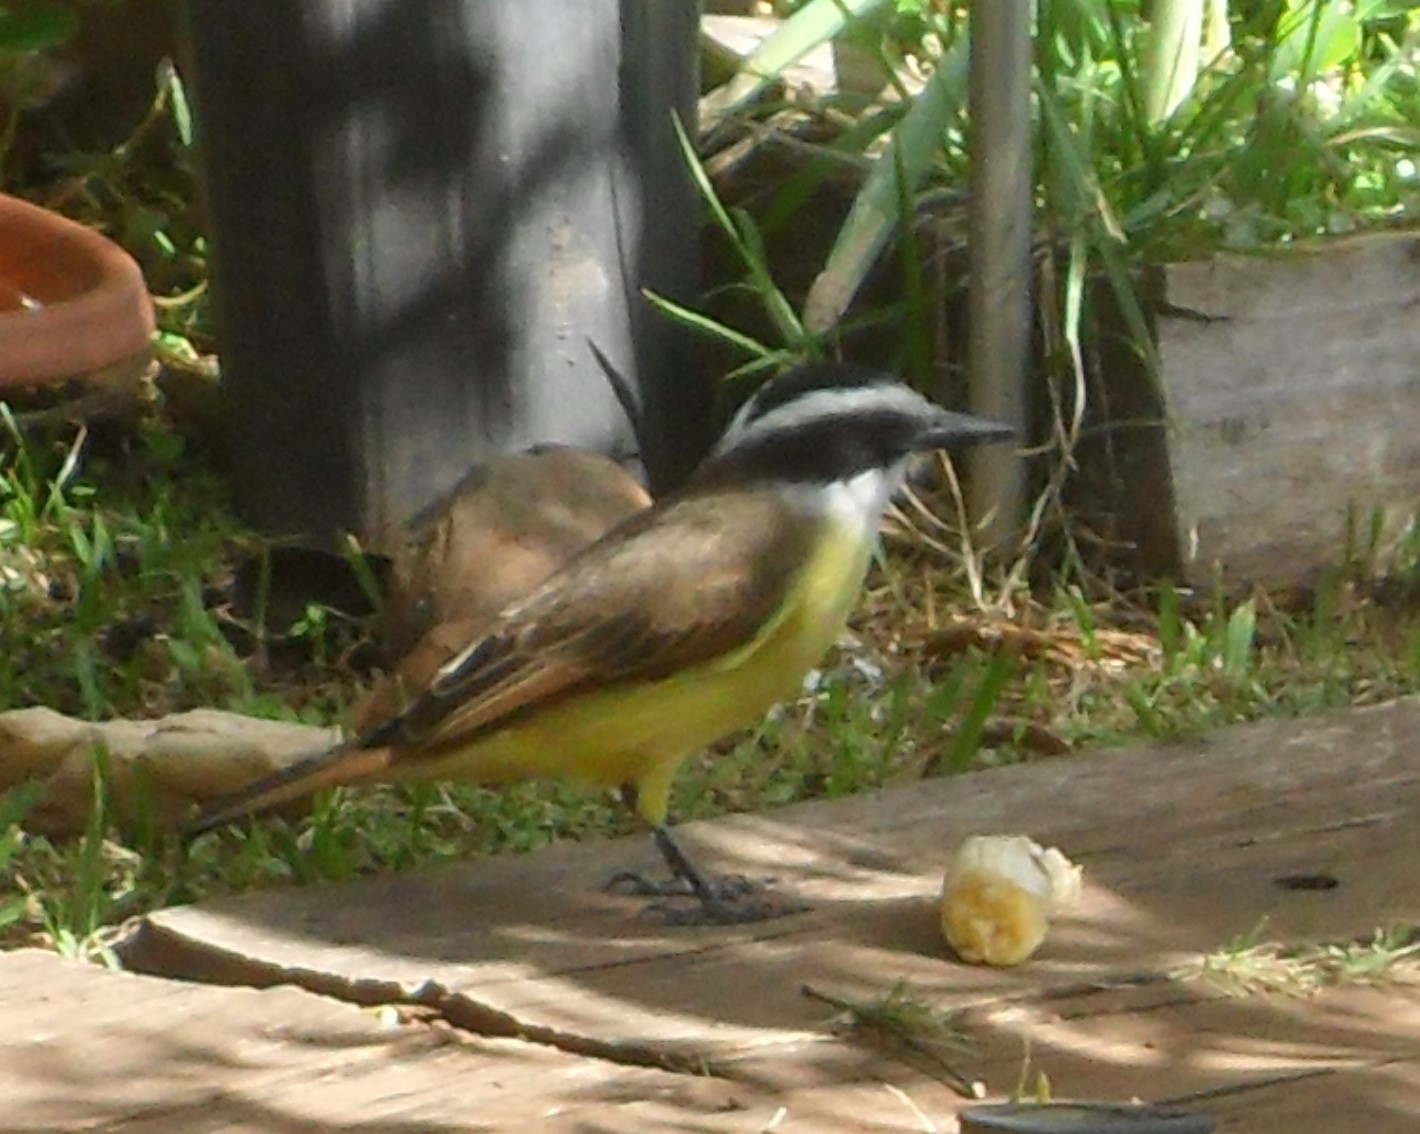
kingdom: Animalia
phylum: Chordata
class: Aves
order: Passeriformes
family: Tyrannidae
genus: Pitangus
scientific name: Pitangus sulphuratus
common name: Great kiskadee
